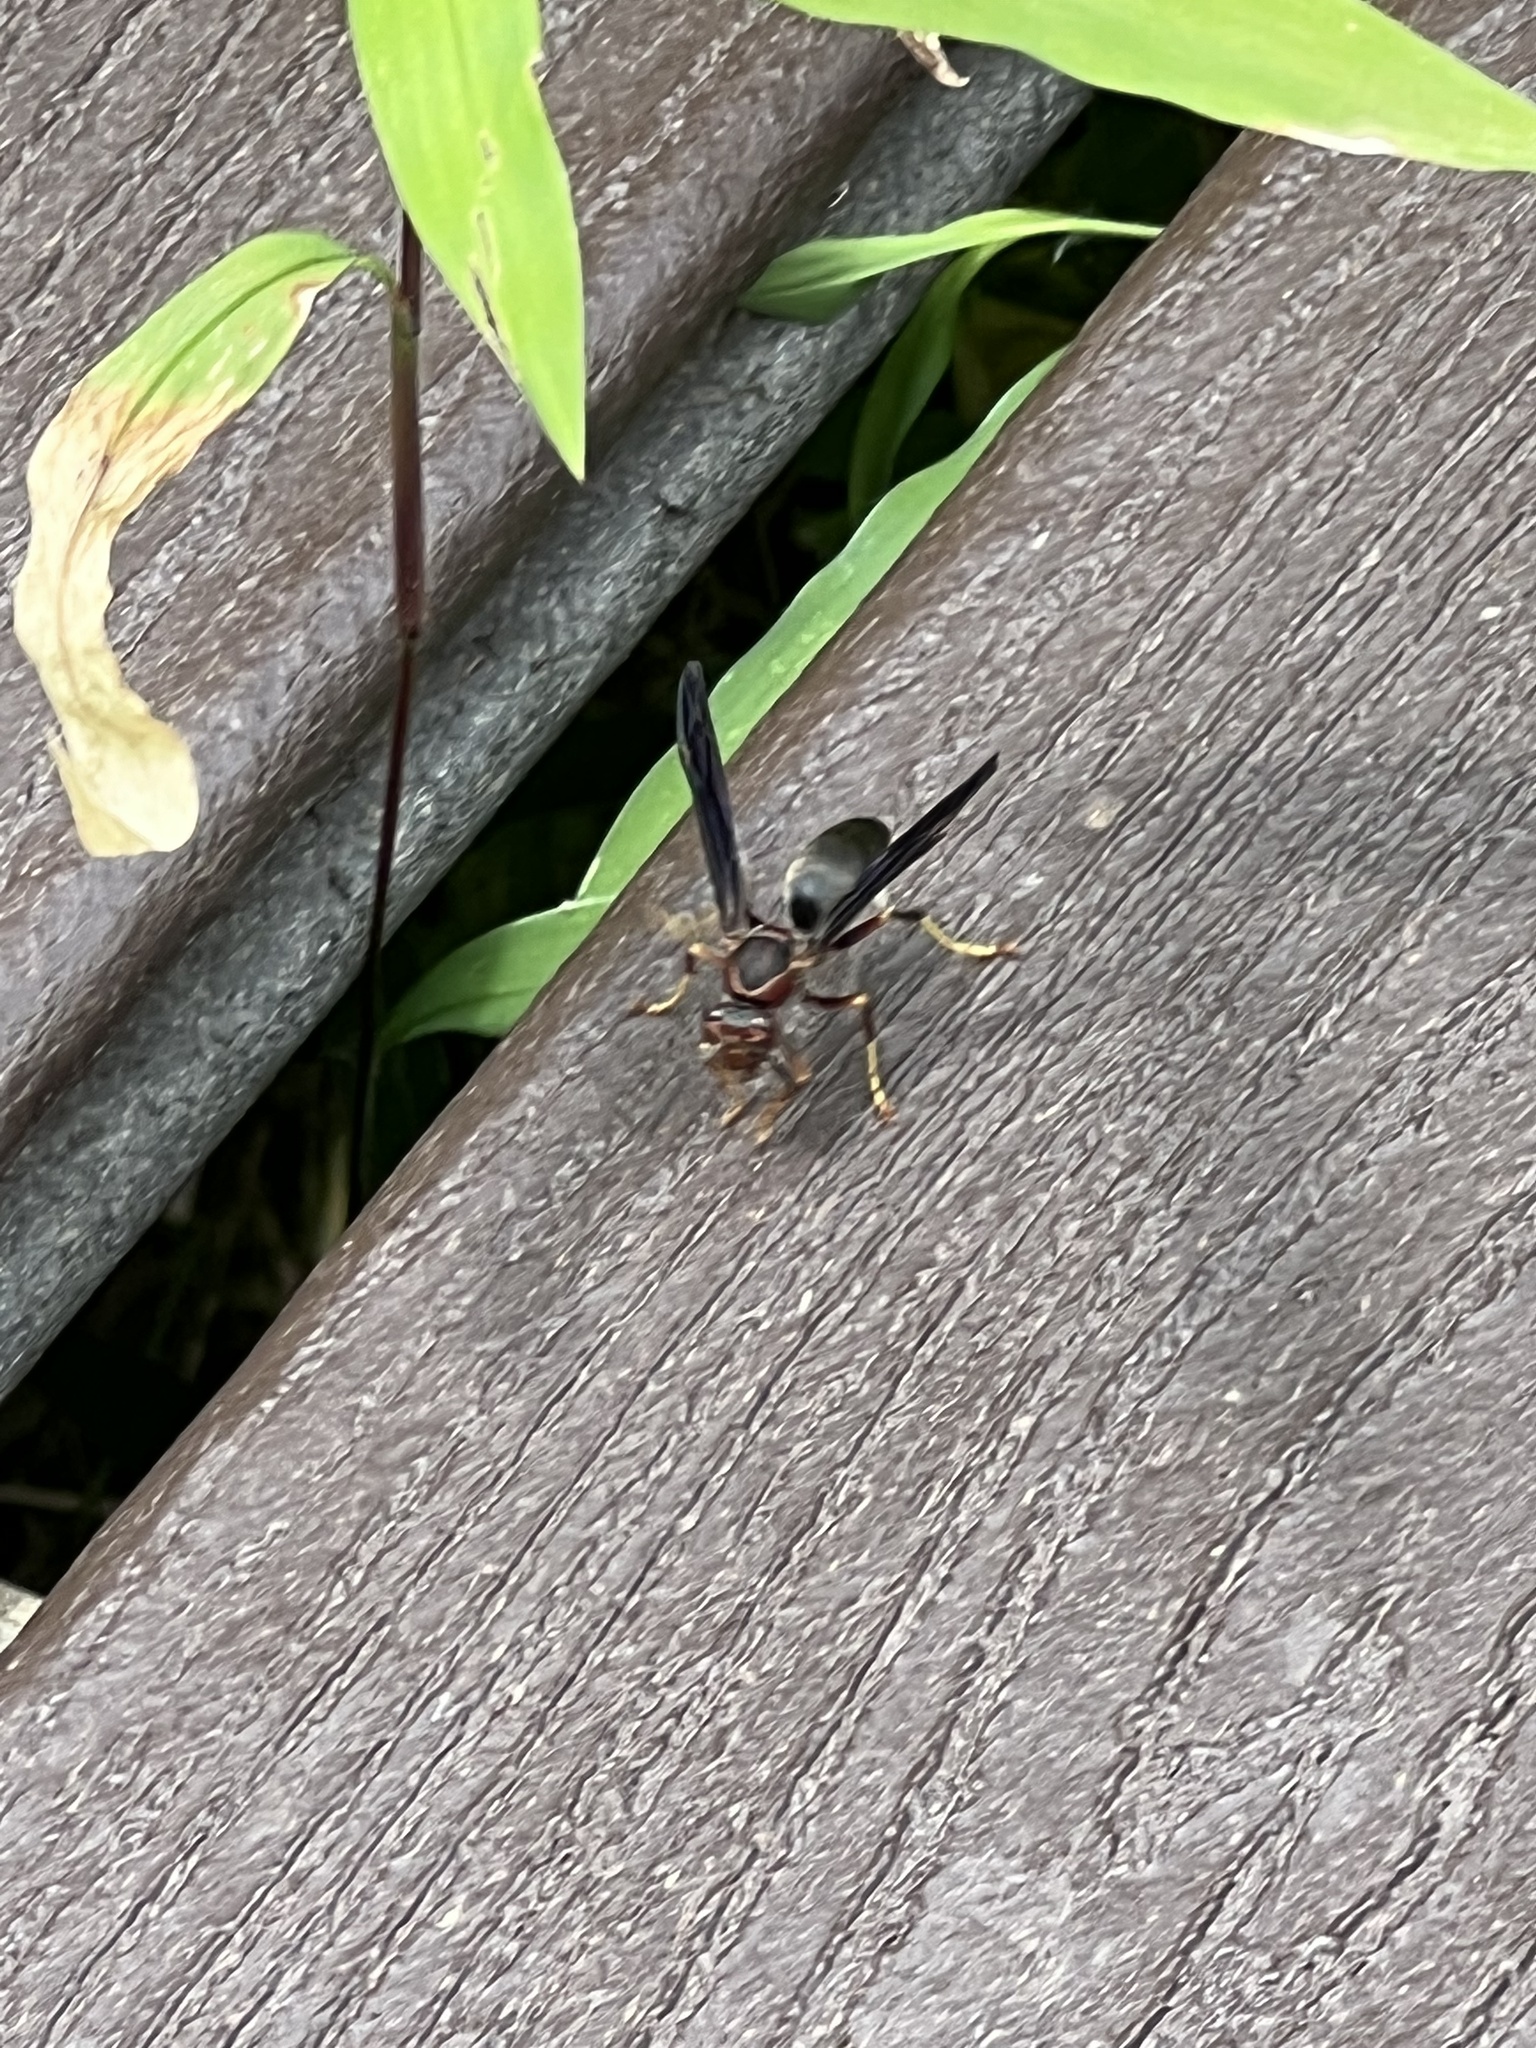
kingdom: Animalia
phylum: Arthropoda
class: Insecta
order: Hymenoptera
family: Eumenidae
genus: Polistes
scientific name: Polistes metricus
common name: Metric paper wasp
